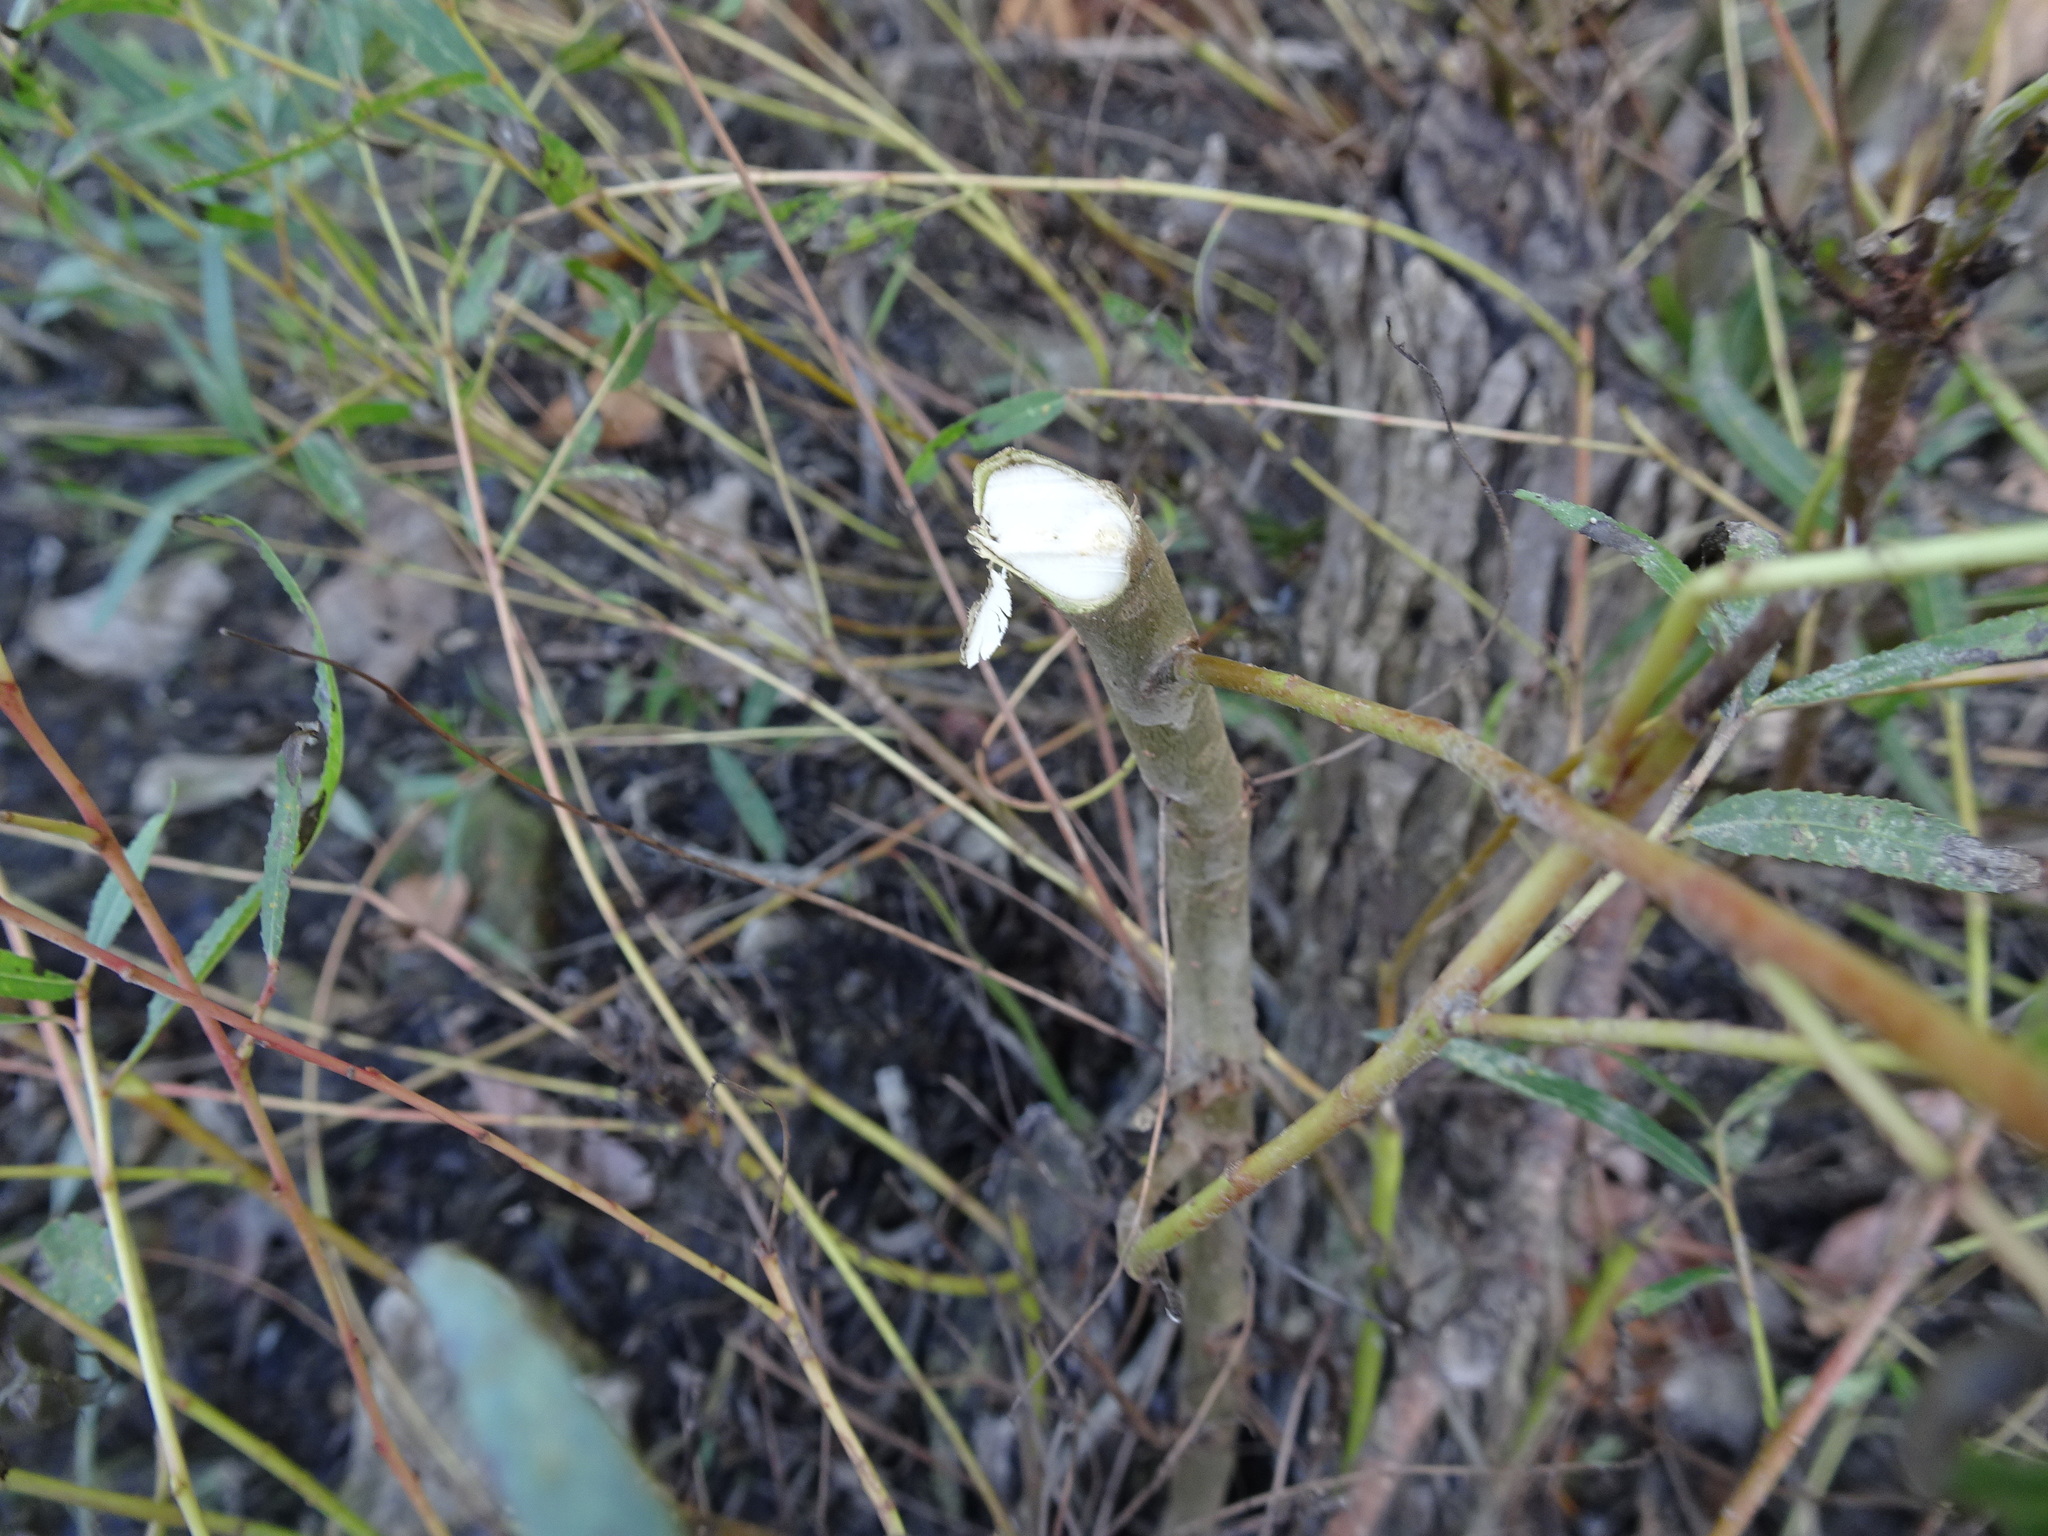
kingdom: Animalia
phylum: Chordata
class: Mammalia
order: Rodentia
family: Castoridae
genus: Castor
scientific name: Castor canadensis
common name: American beaver
